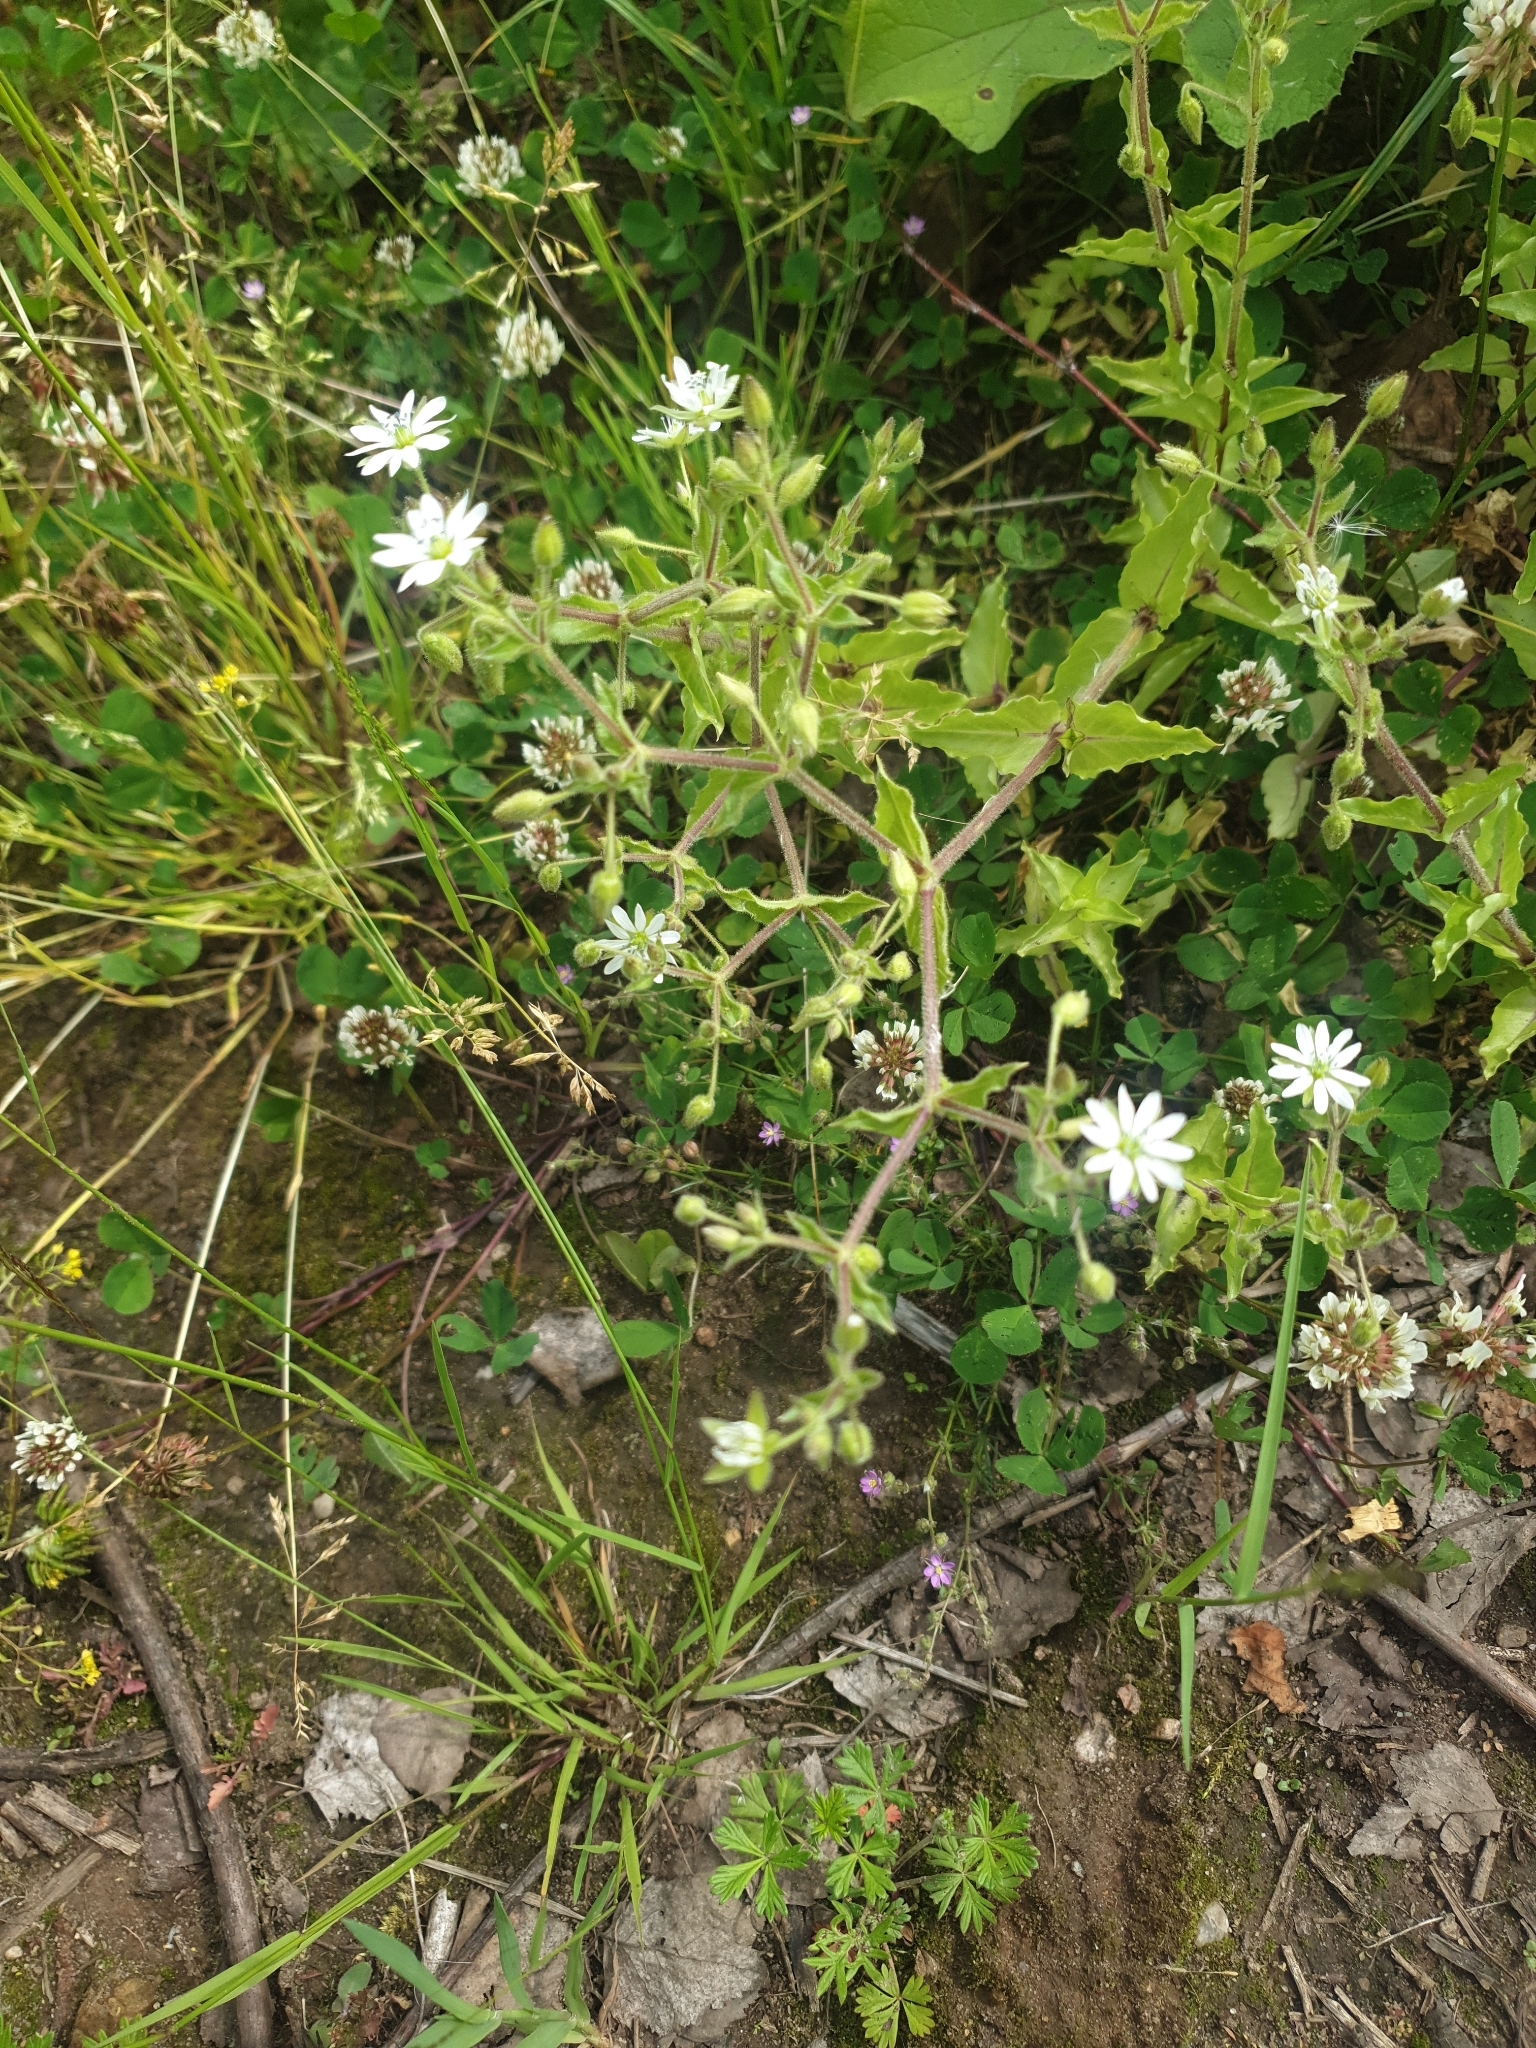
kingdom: Plantae
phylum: Tracheophyta
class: Magnoliopsida
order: Caryophyllales
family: Caryophyllaceae
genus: Stellaria
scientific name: Stellaria aquatica
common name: Water chickweed
